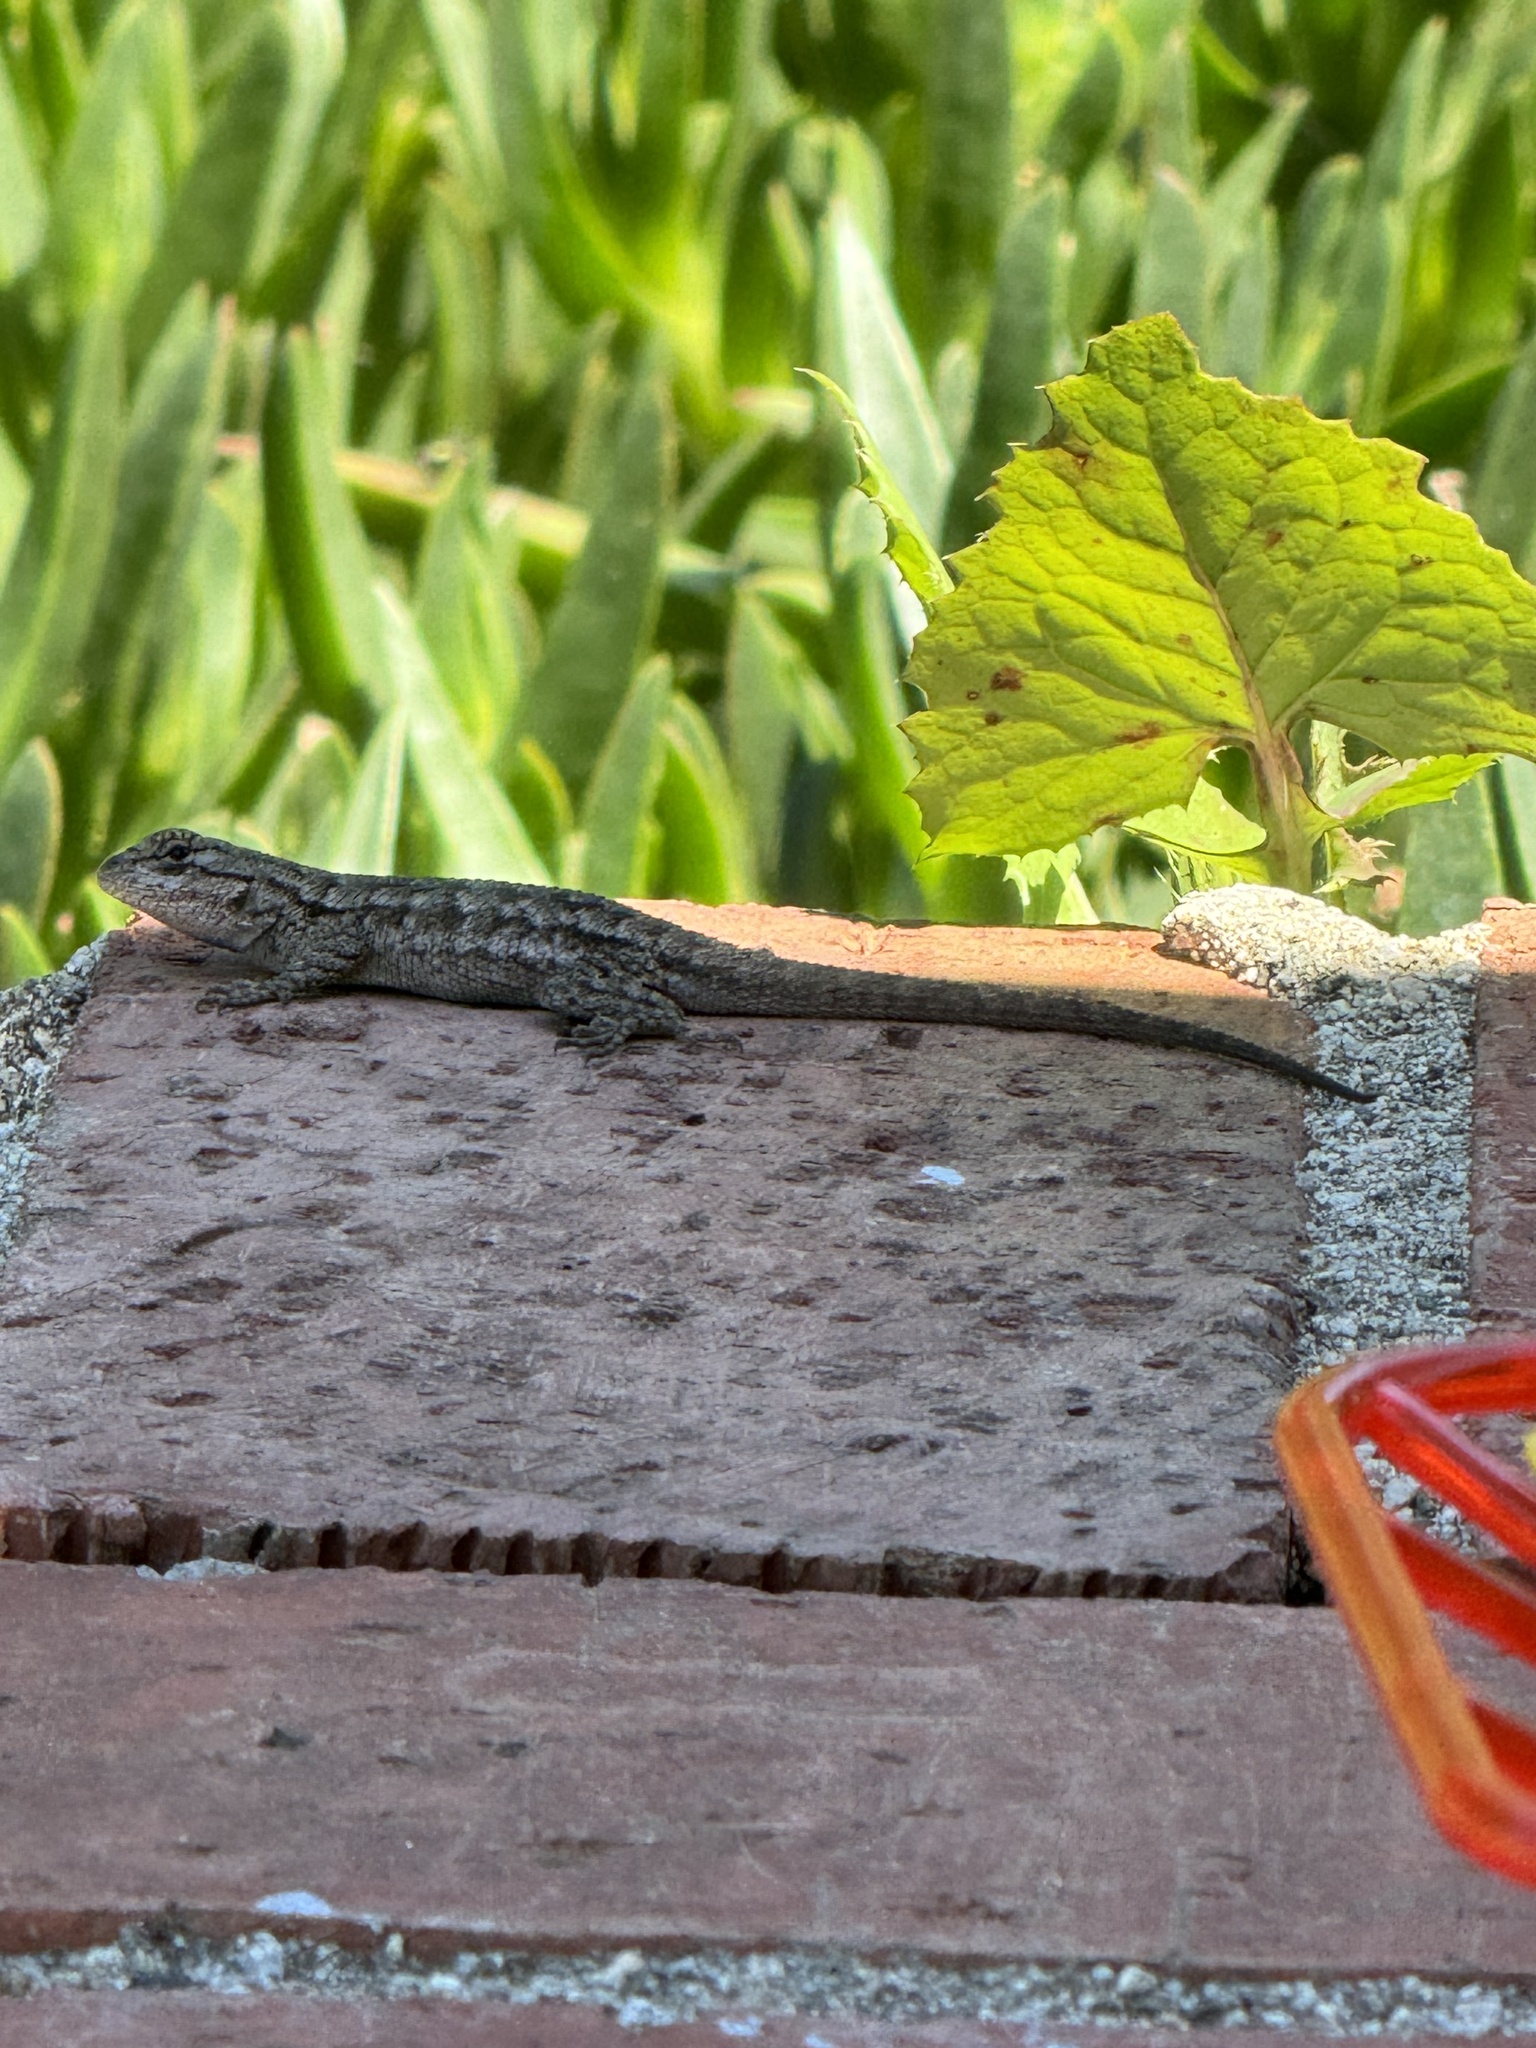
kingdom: Animalia
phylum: Chordata
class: Squamata
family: Phrynosomatidae
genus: Sceloporus
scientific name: Sceloporus occidentalis
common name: Western fence lizard
